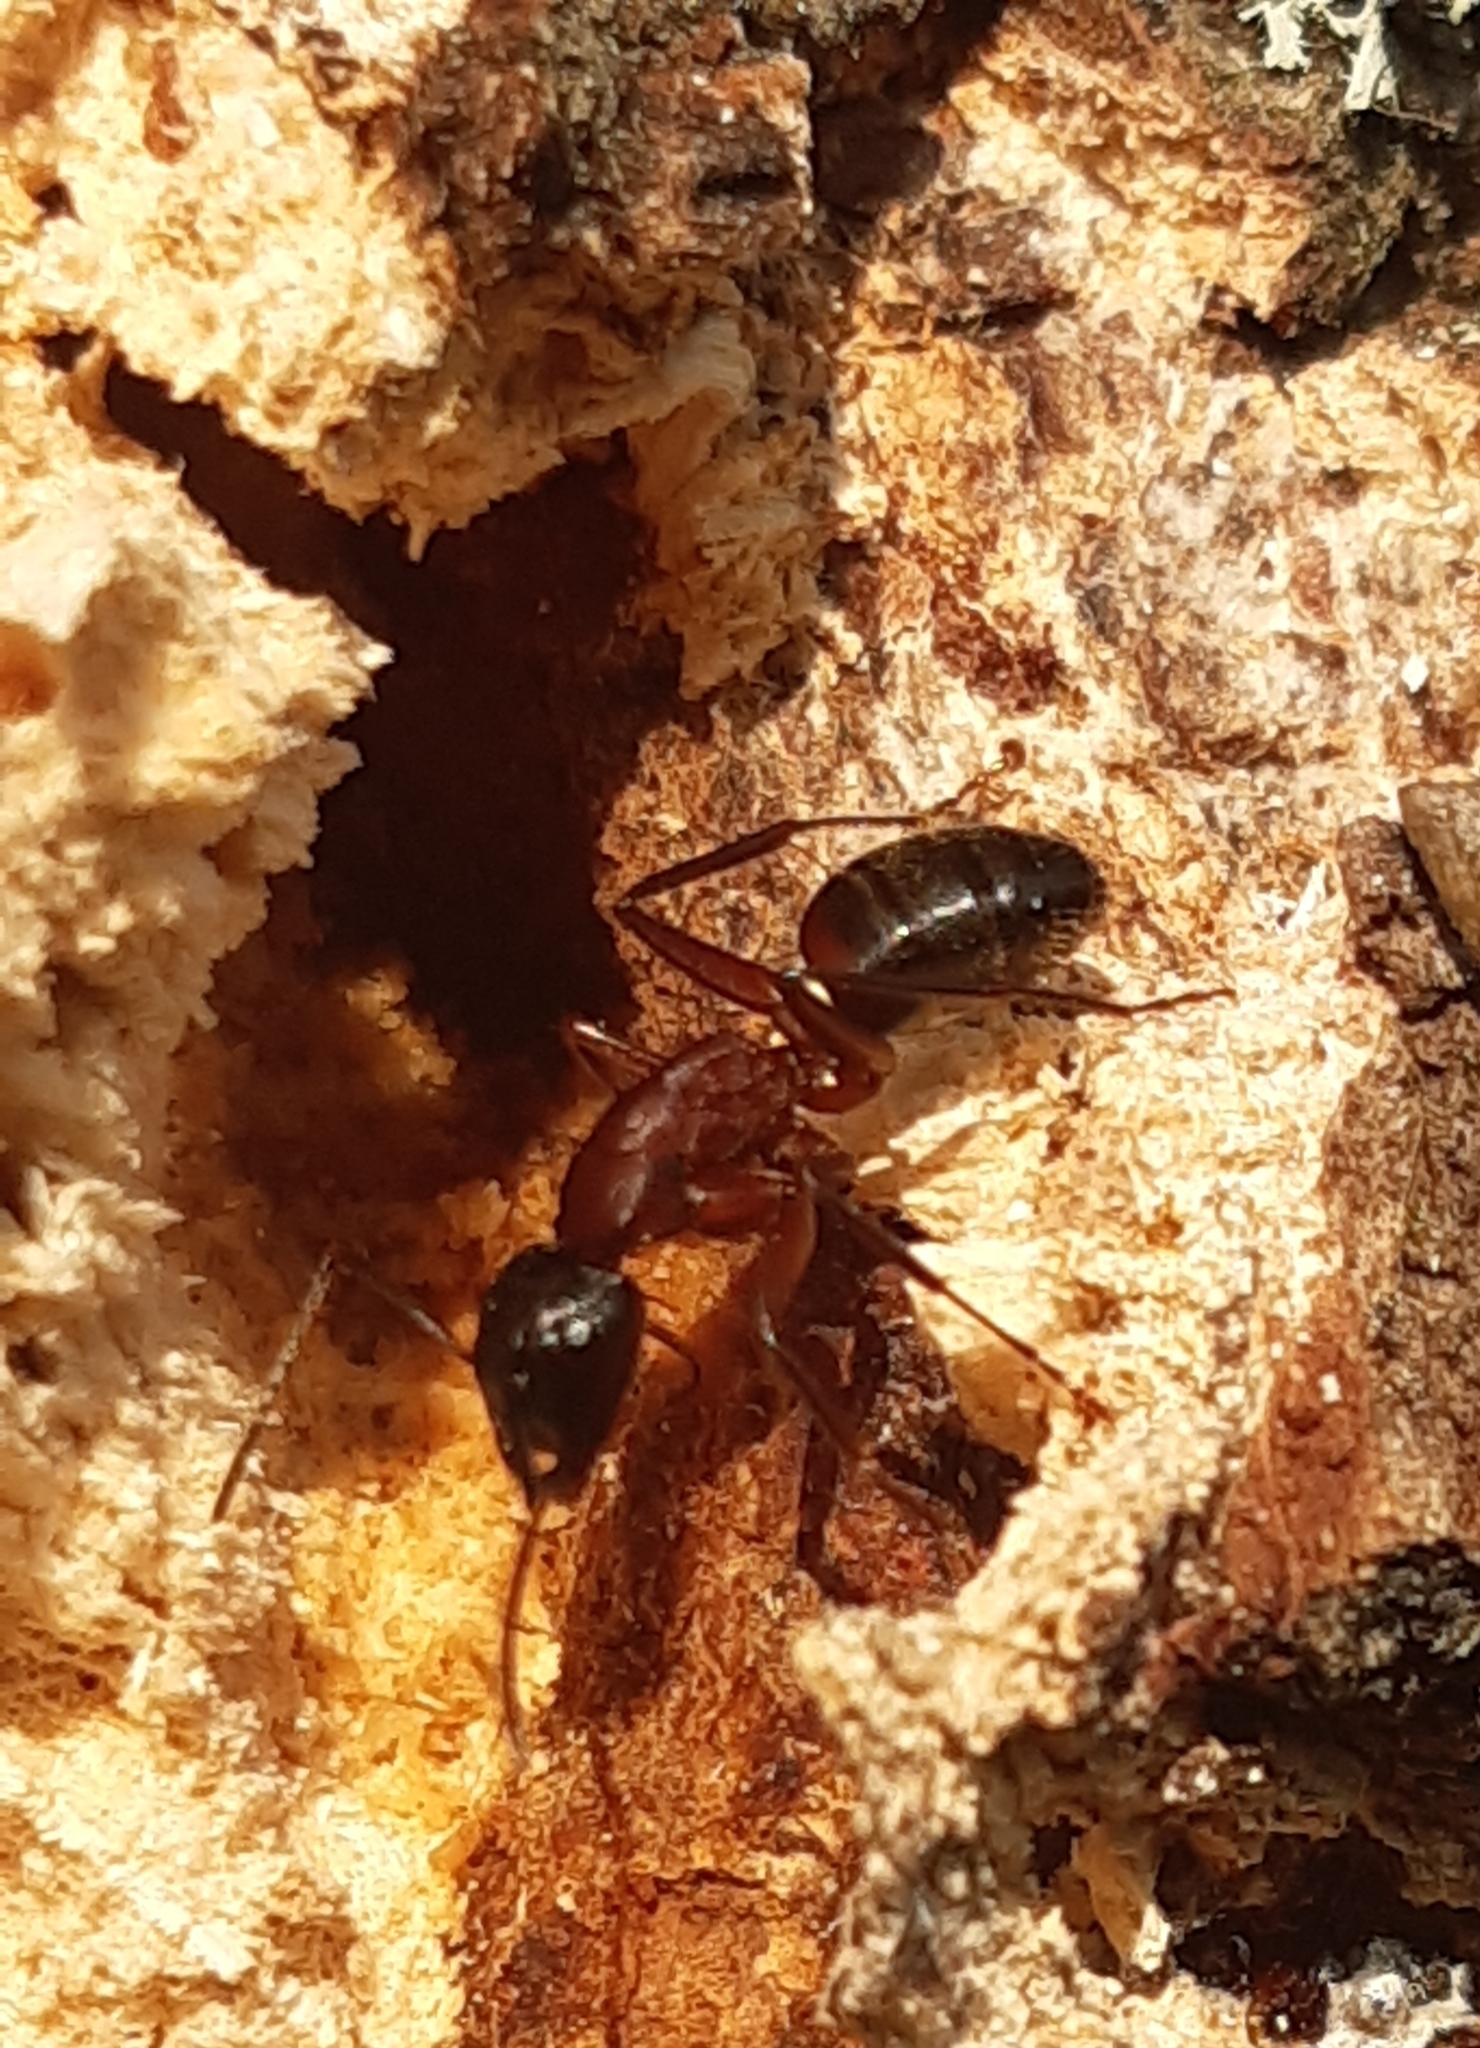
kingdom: Animalia
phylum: Arthropoda
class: Insecta
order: Hymenoptera
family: Formicidae
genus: Camponotus
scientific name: Camponotus ligniperdus
